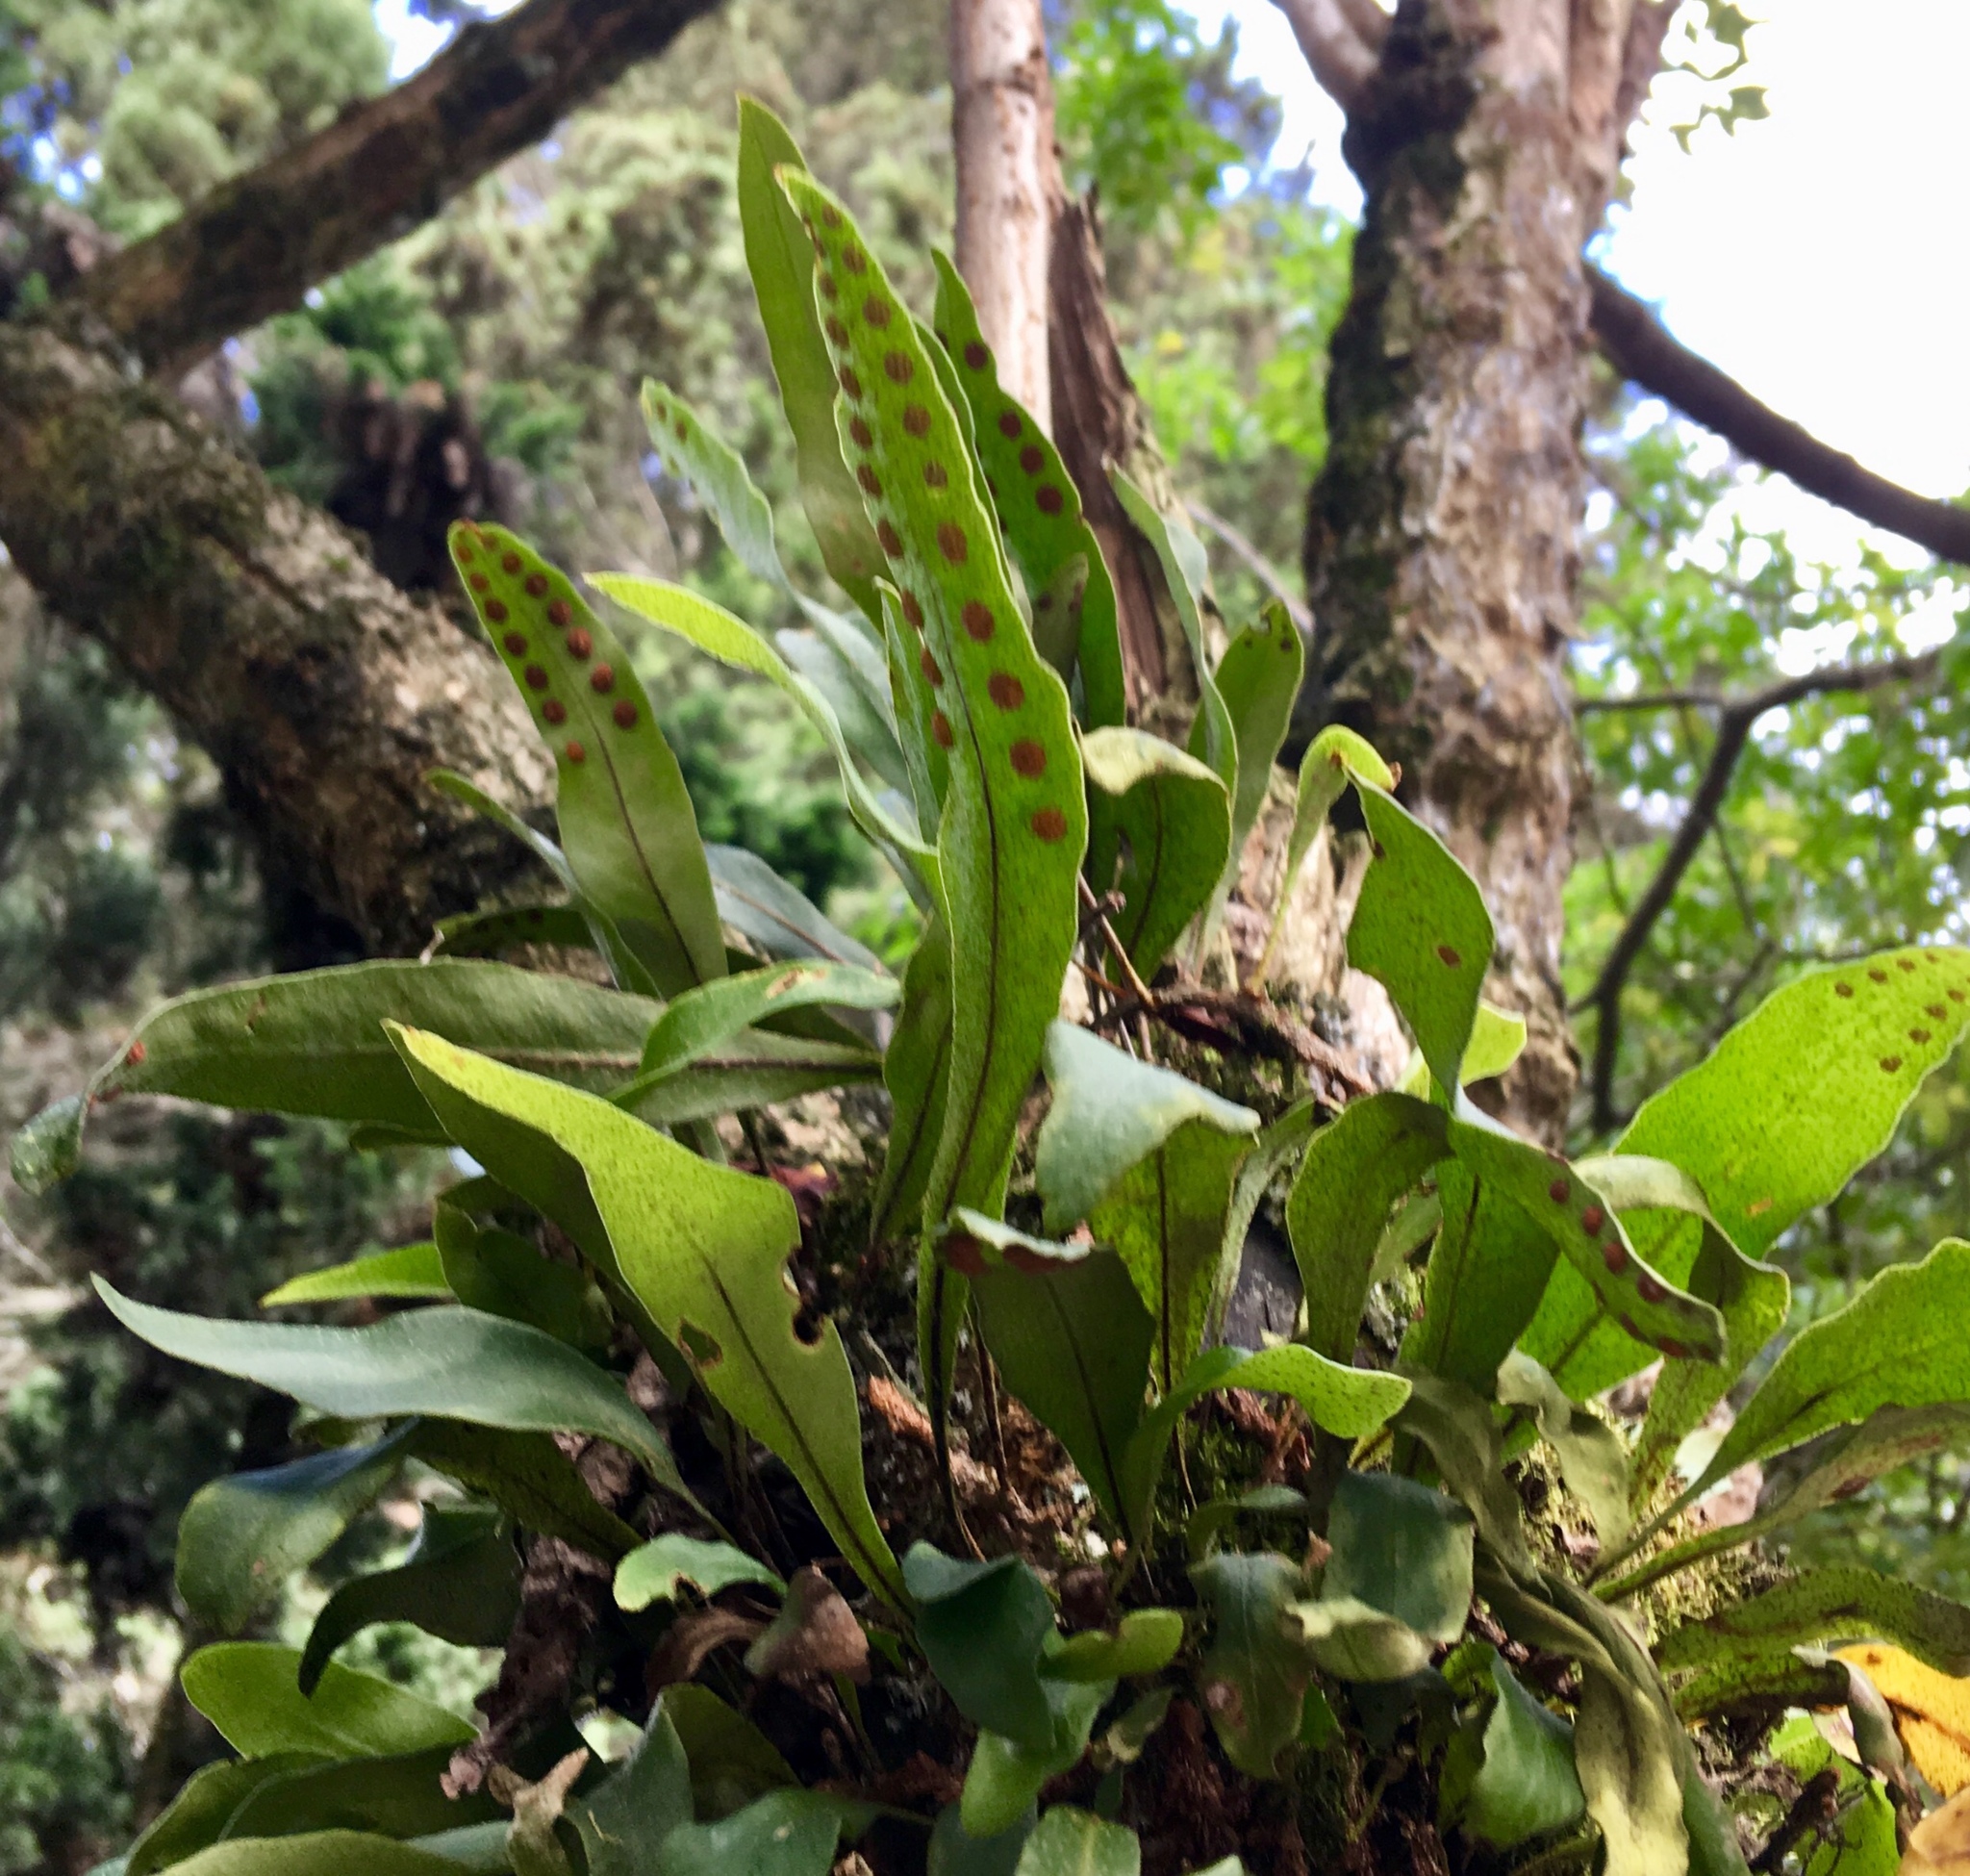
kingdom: Plantae
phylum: Tracheophyta
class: Polypodiopsida
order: Polypodiales
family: Polypodiaceae
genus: Pleopeltis
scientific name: Pleopeltis macrocarpa
